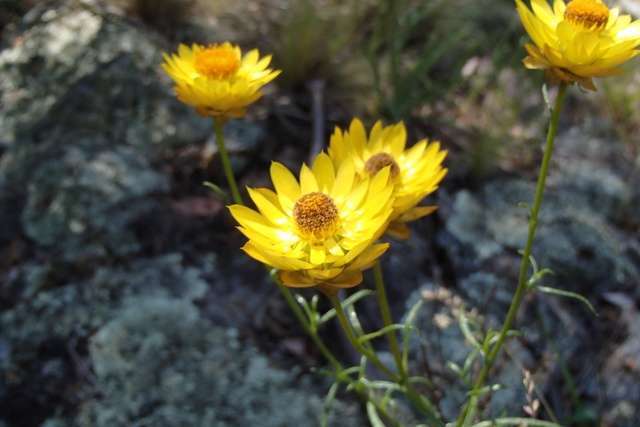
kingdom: Plantae
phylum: Tracheophyta
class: Magnoliopsida
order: Asterales
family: Asteraceae
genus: Xerochrysum
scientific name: Xerochrysum viscosum
